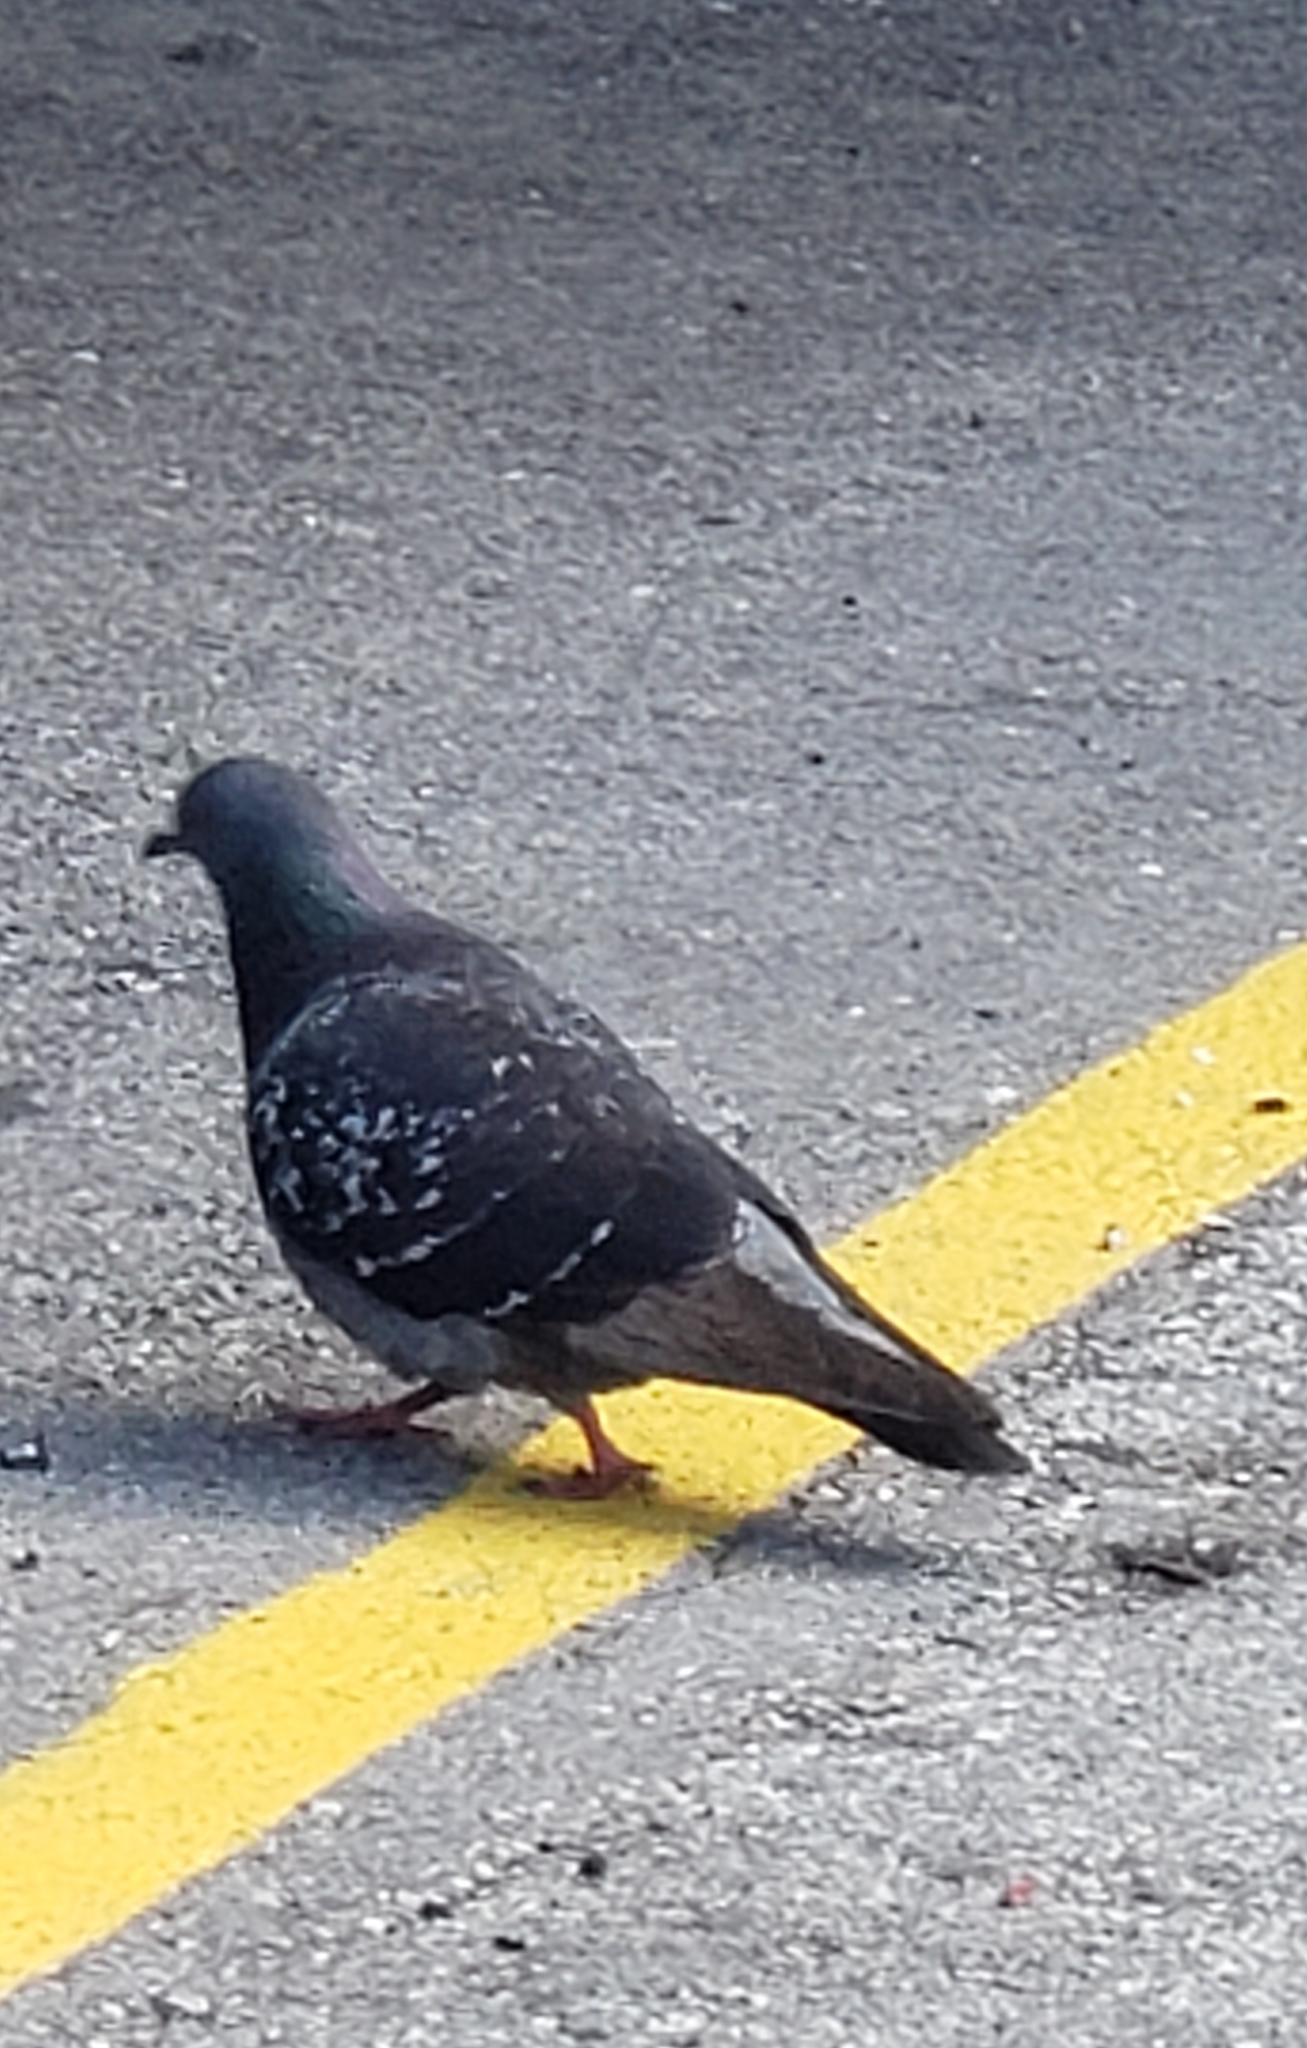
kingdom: Animalia
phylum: Chordata
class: Aves
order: Columbiformes
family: Columbidae
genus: Columba
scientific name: Columba livia
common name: Rock pigeon
